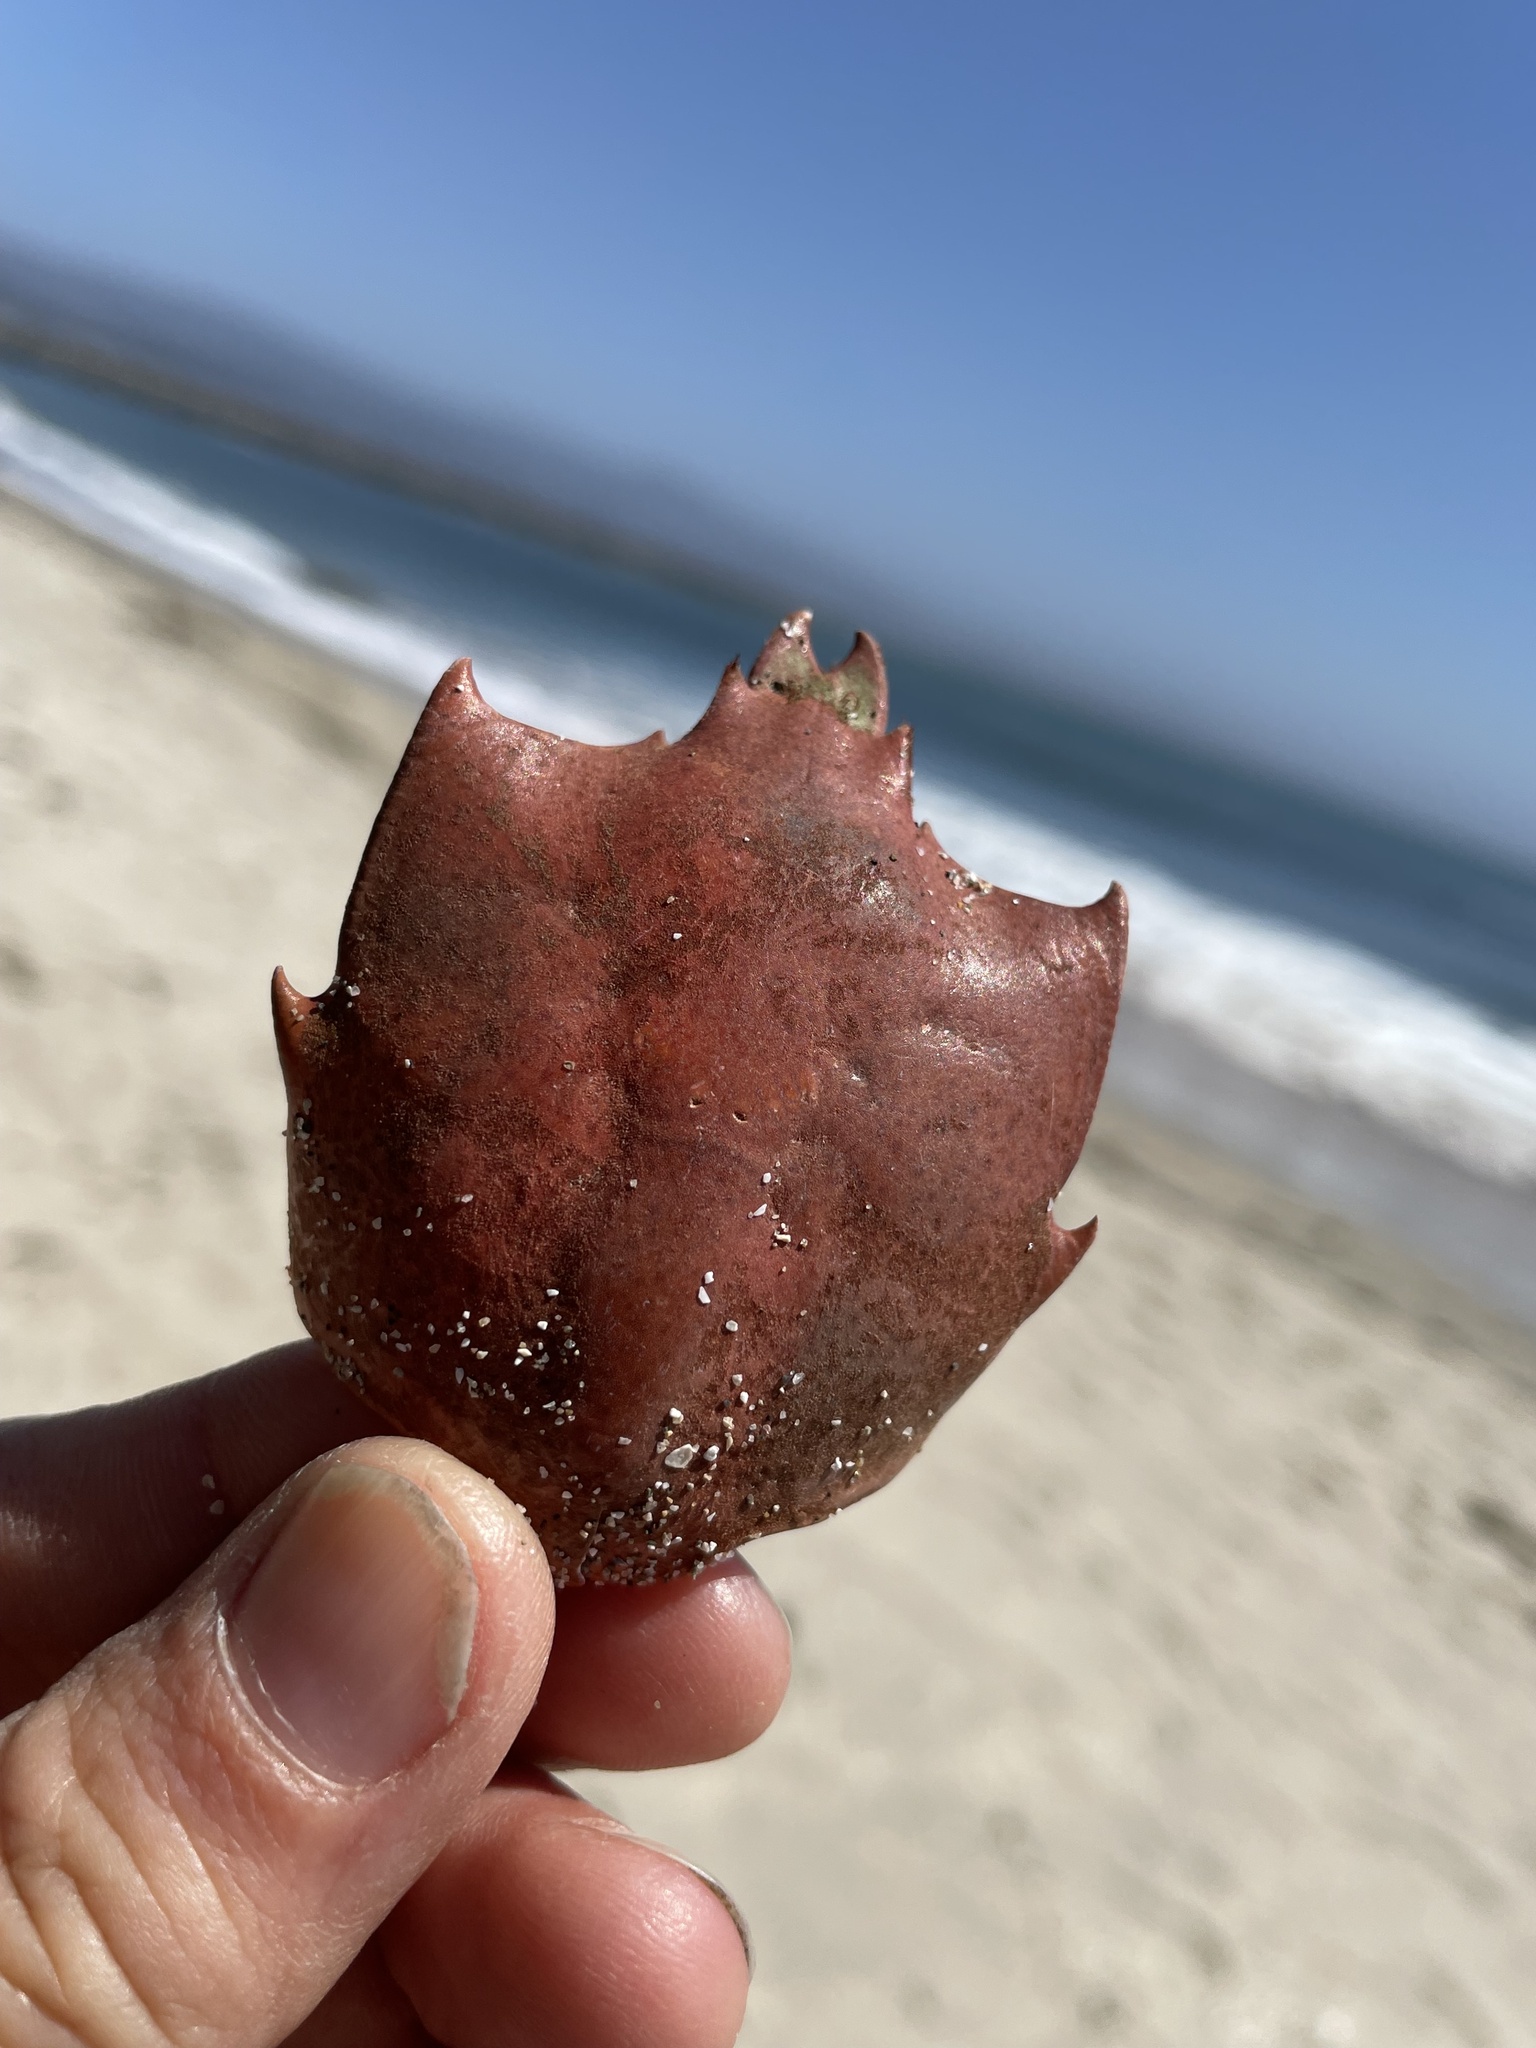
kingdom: Animalia
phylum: Arthropoda
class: Malacostraca
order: Decapoda
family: Epialtidae
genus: Pugettia
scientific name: Pugettia producta
